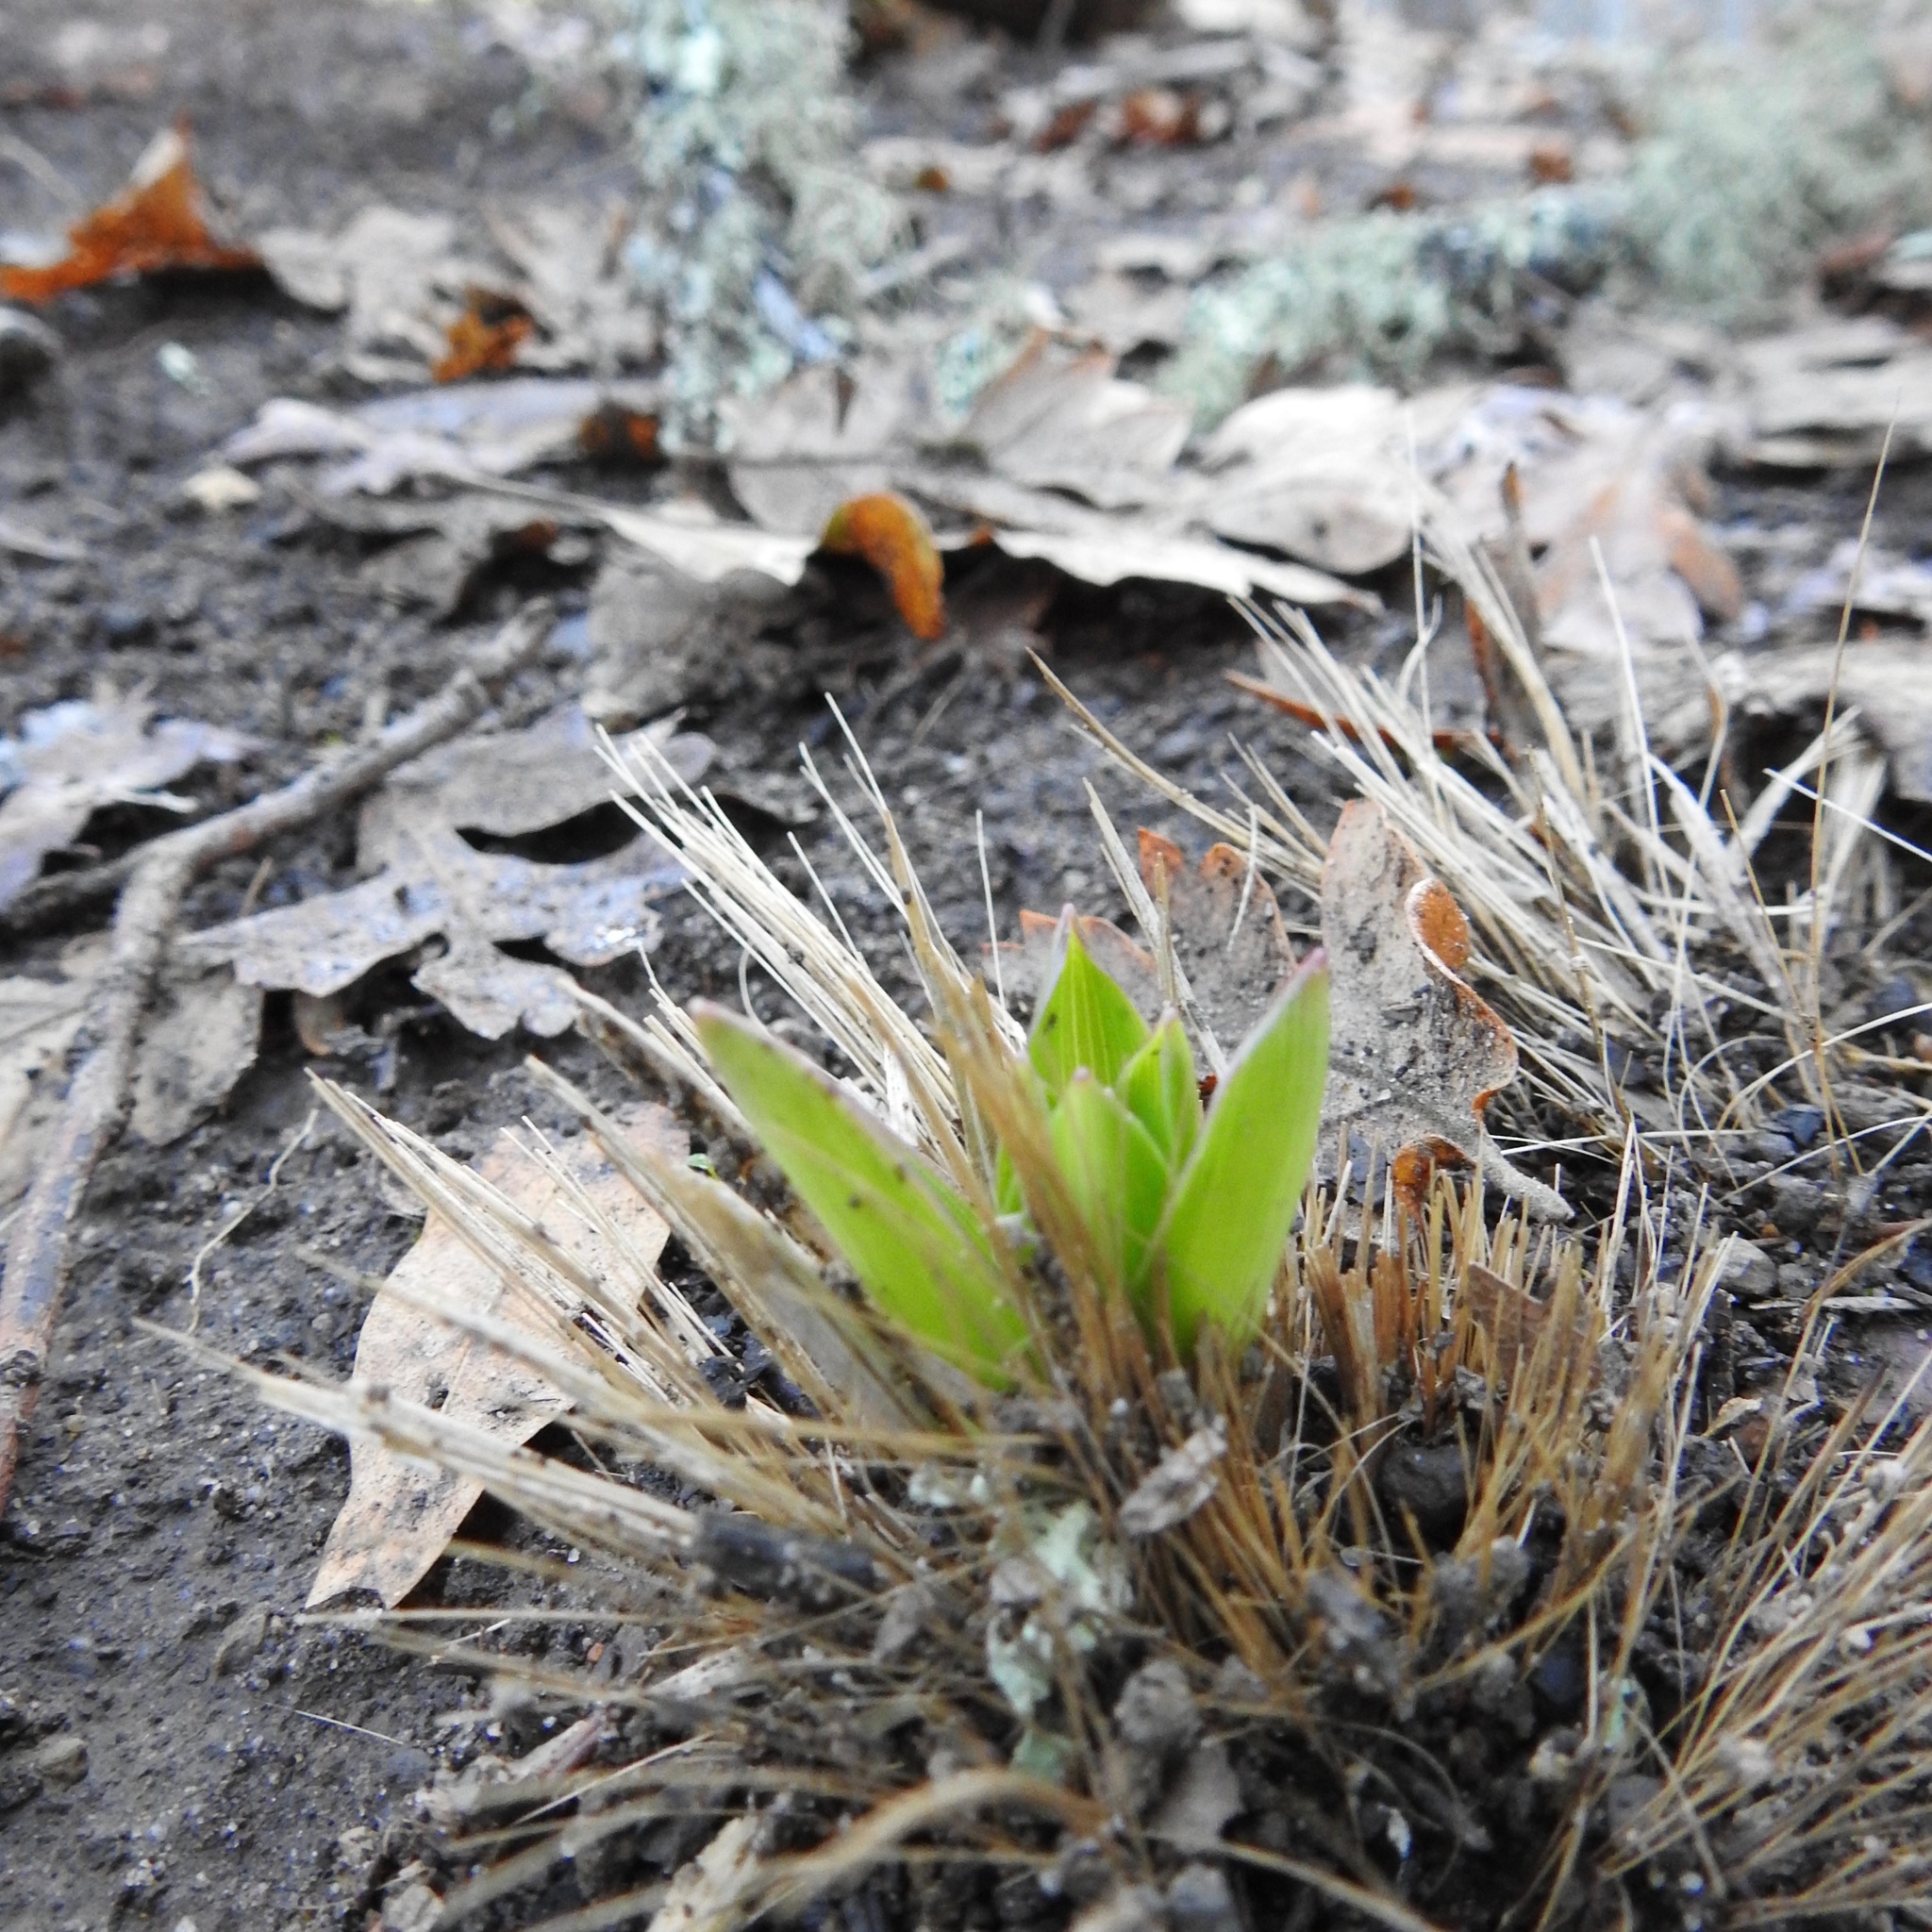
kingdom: Plantae
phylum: Tracheophyta
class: Liliopsida
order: Asparagales
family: Asparagaceae
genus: Chlorogalum
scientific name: Chlorogalum pomeridianum
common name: Amole
